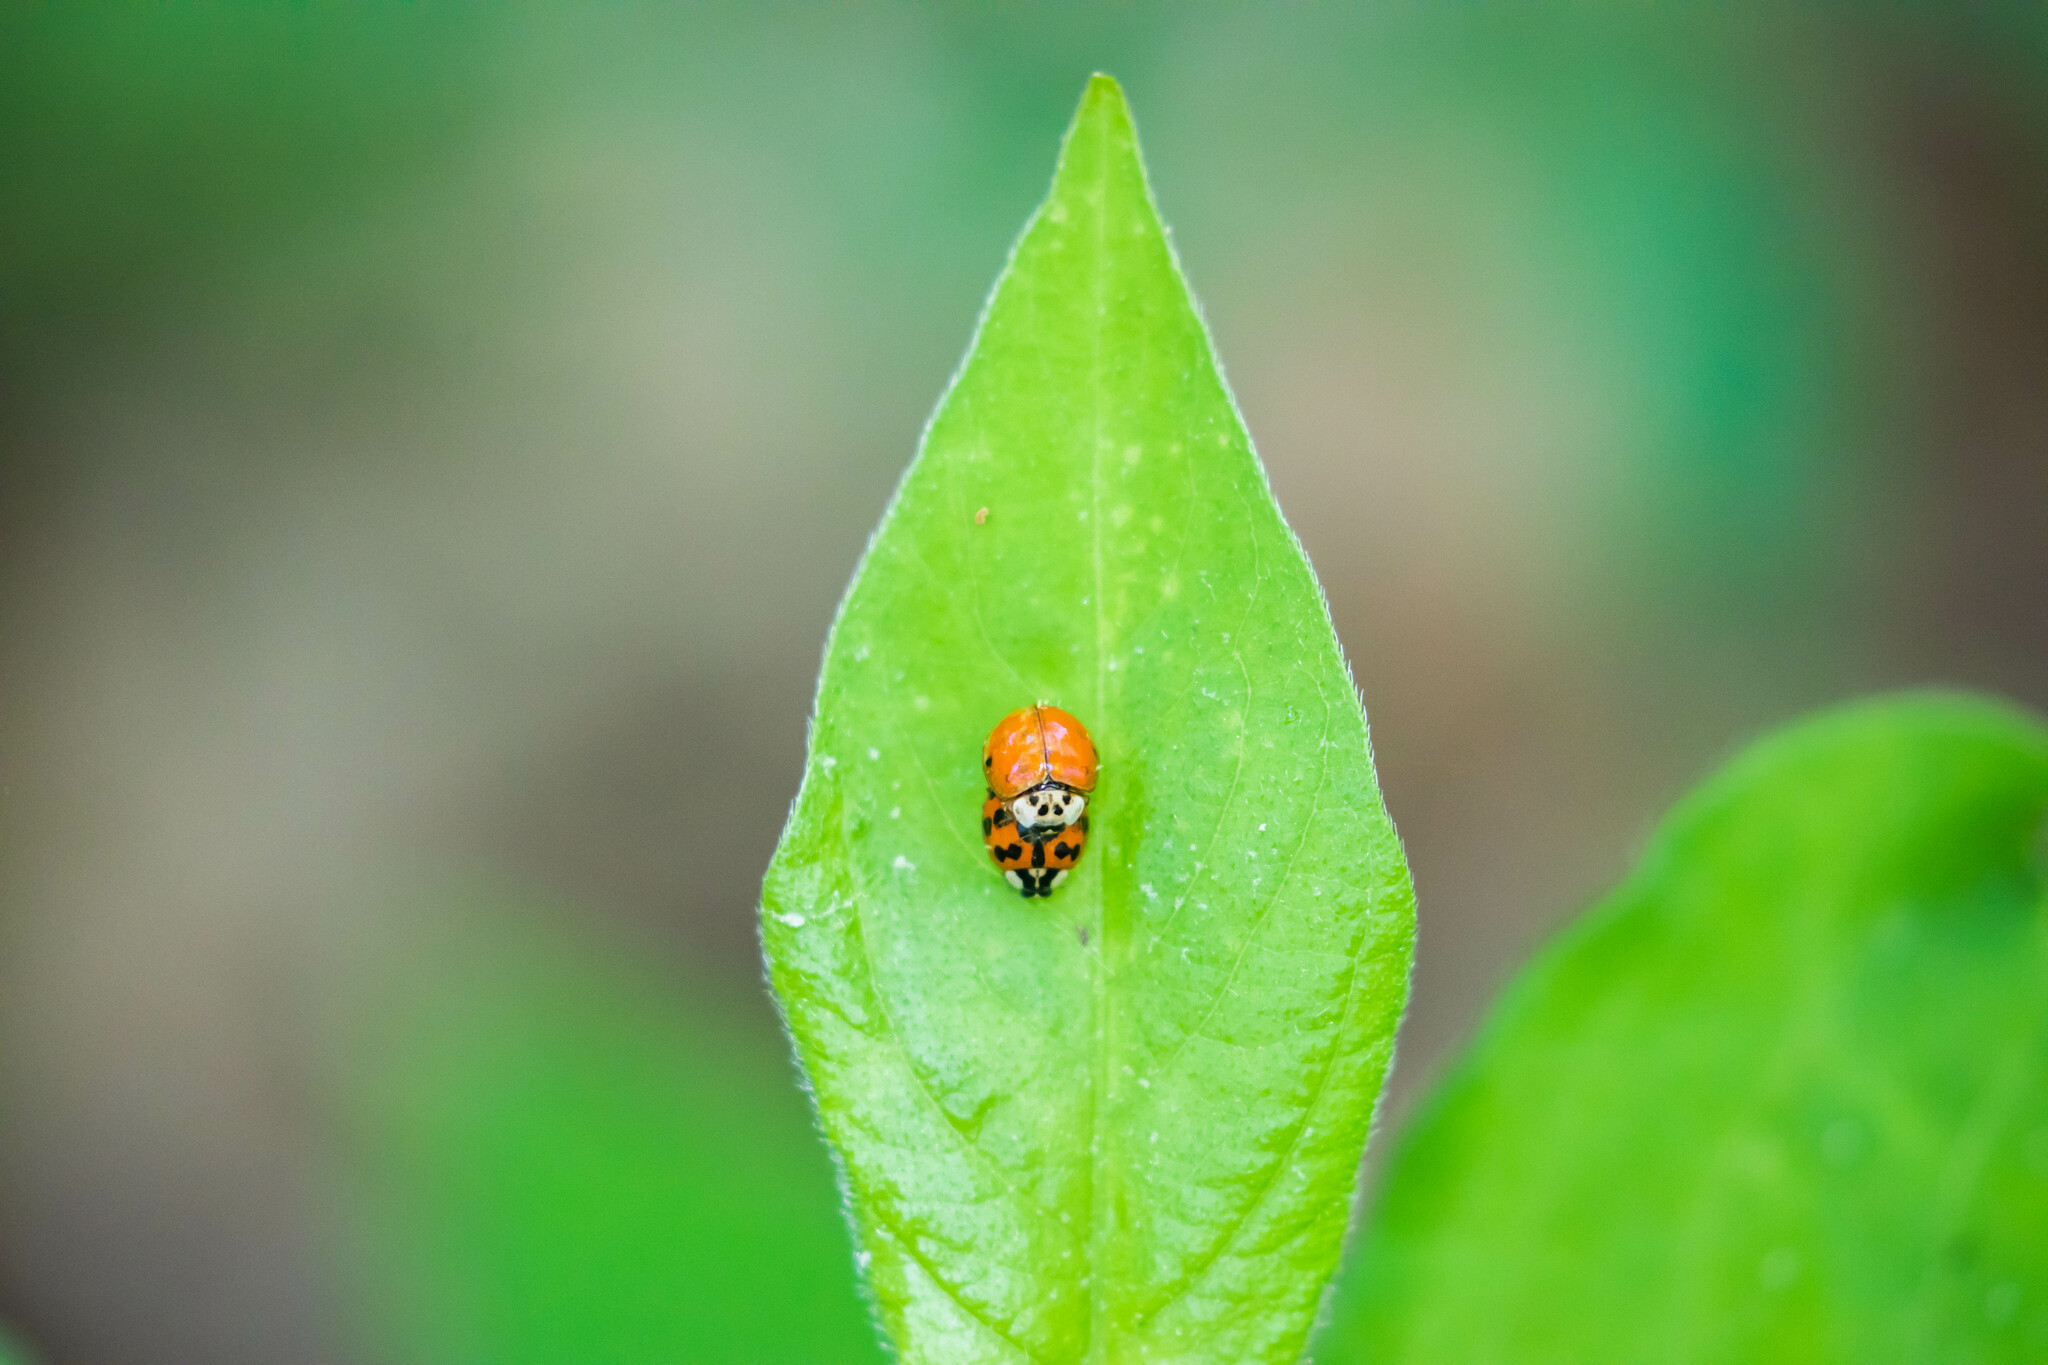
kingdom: Animalia
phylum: Arthropoda
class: Insecta
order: Coleoptera
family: Coccinellidae
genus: Harmonia
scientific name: Harmonia axyridis
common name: Harlequin ladybird
